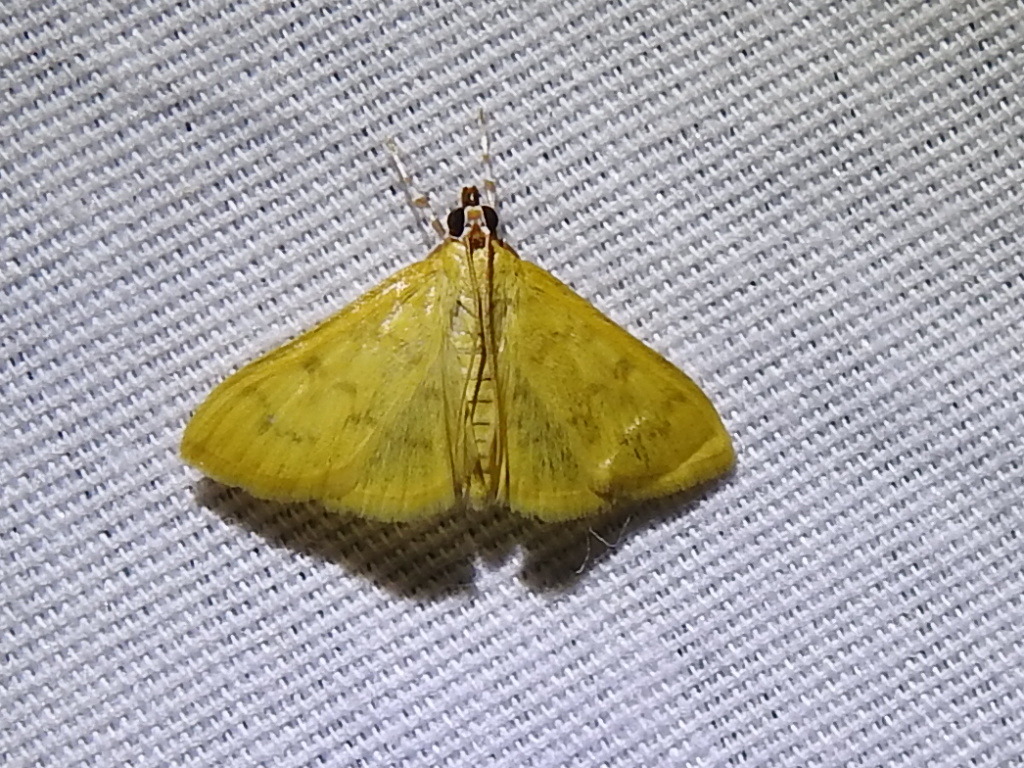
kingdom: Animalia
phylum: Arthropoda
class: Insecta
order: Lepidoptera
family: Crambidae
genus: Loxomorpha
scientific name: Loxomorpha flavidissimalis
